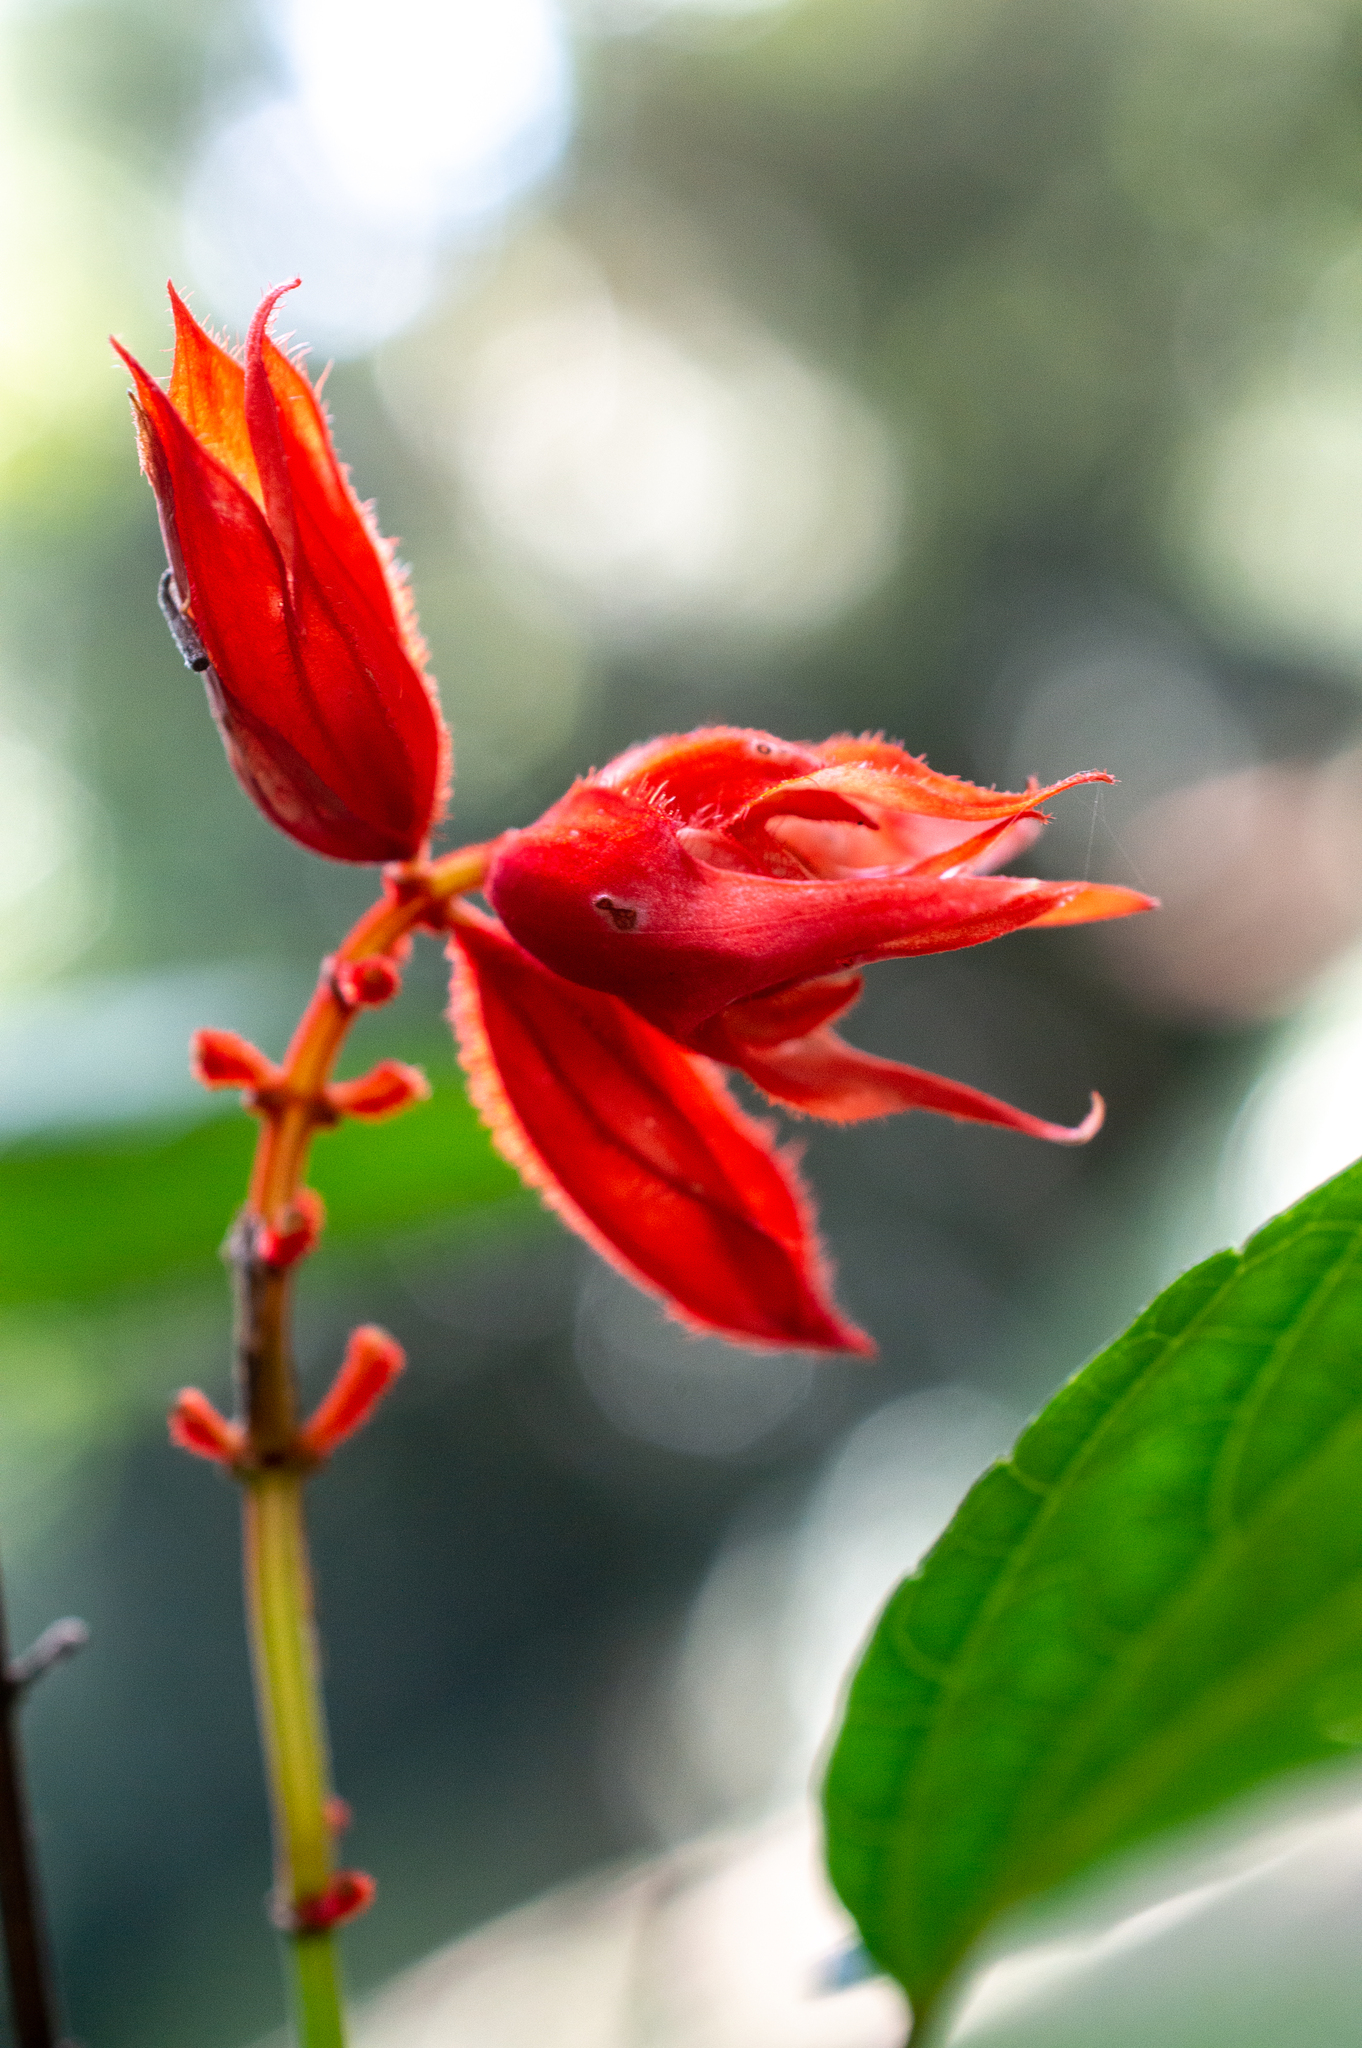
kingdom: Plantae
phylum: Tracheophyta
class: Magnoliopsida
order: Lamiales
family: Lamiaceae
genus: Salvia
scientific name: Salvia splendens
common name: Scarlet sage
